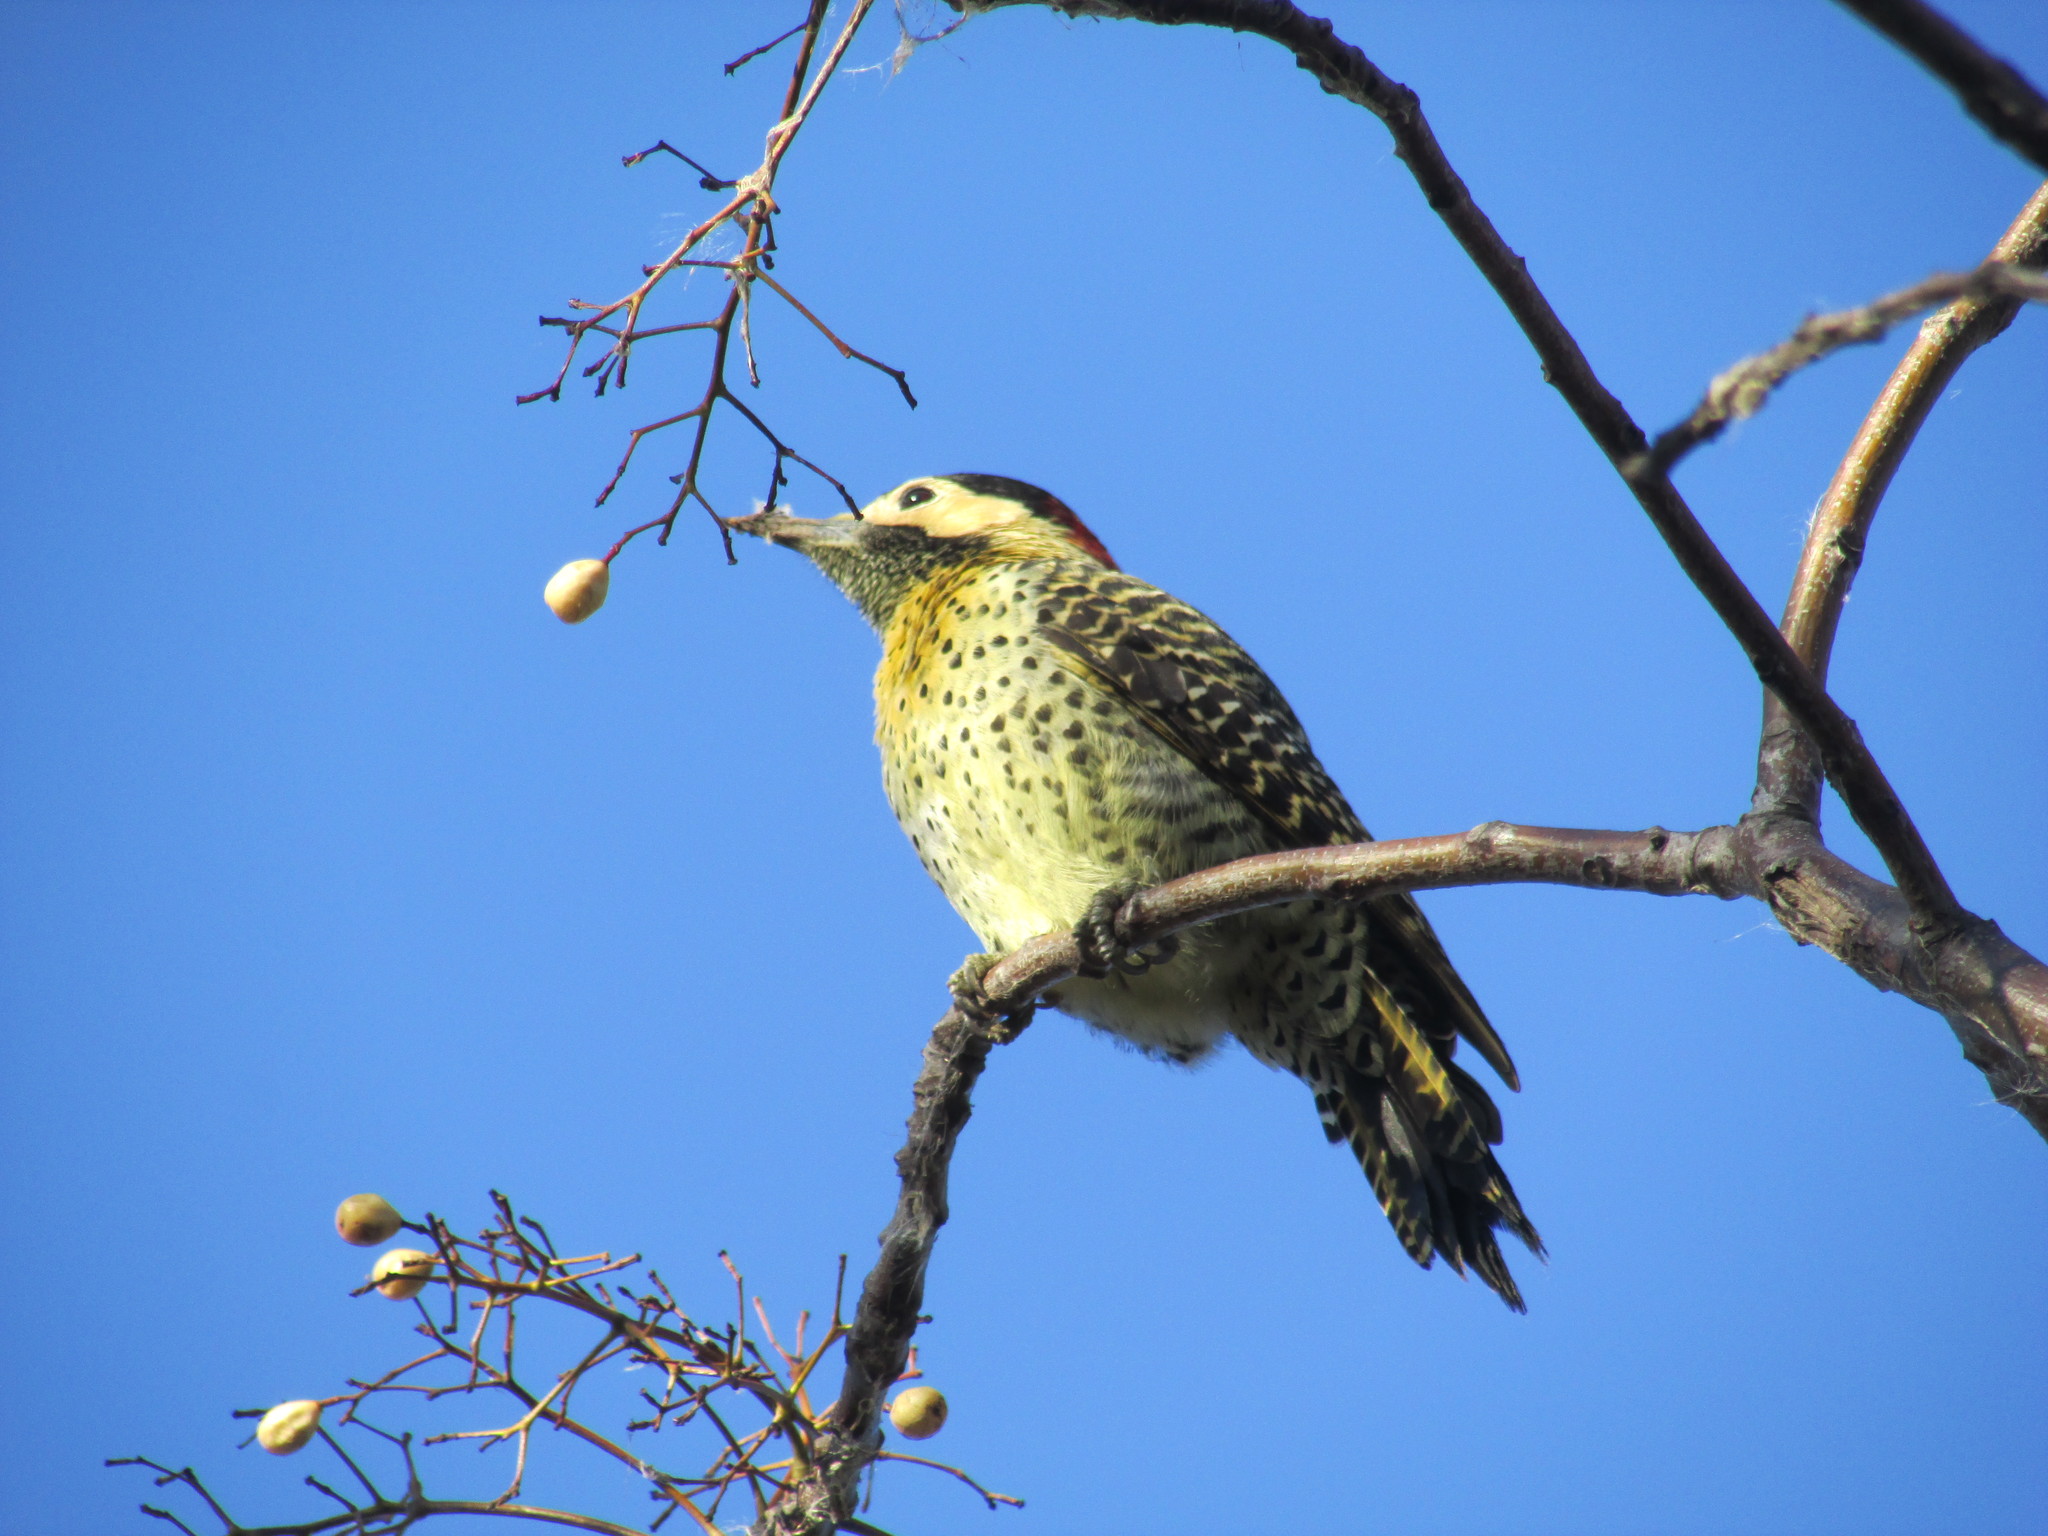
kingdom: Animalia
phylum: Chordata
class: Aves
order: Piciformes
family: Picidae
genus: Colaptes
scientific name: Colaptes melanochloros
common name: Green-barred woodpecker
